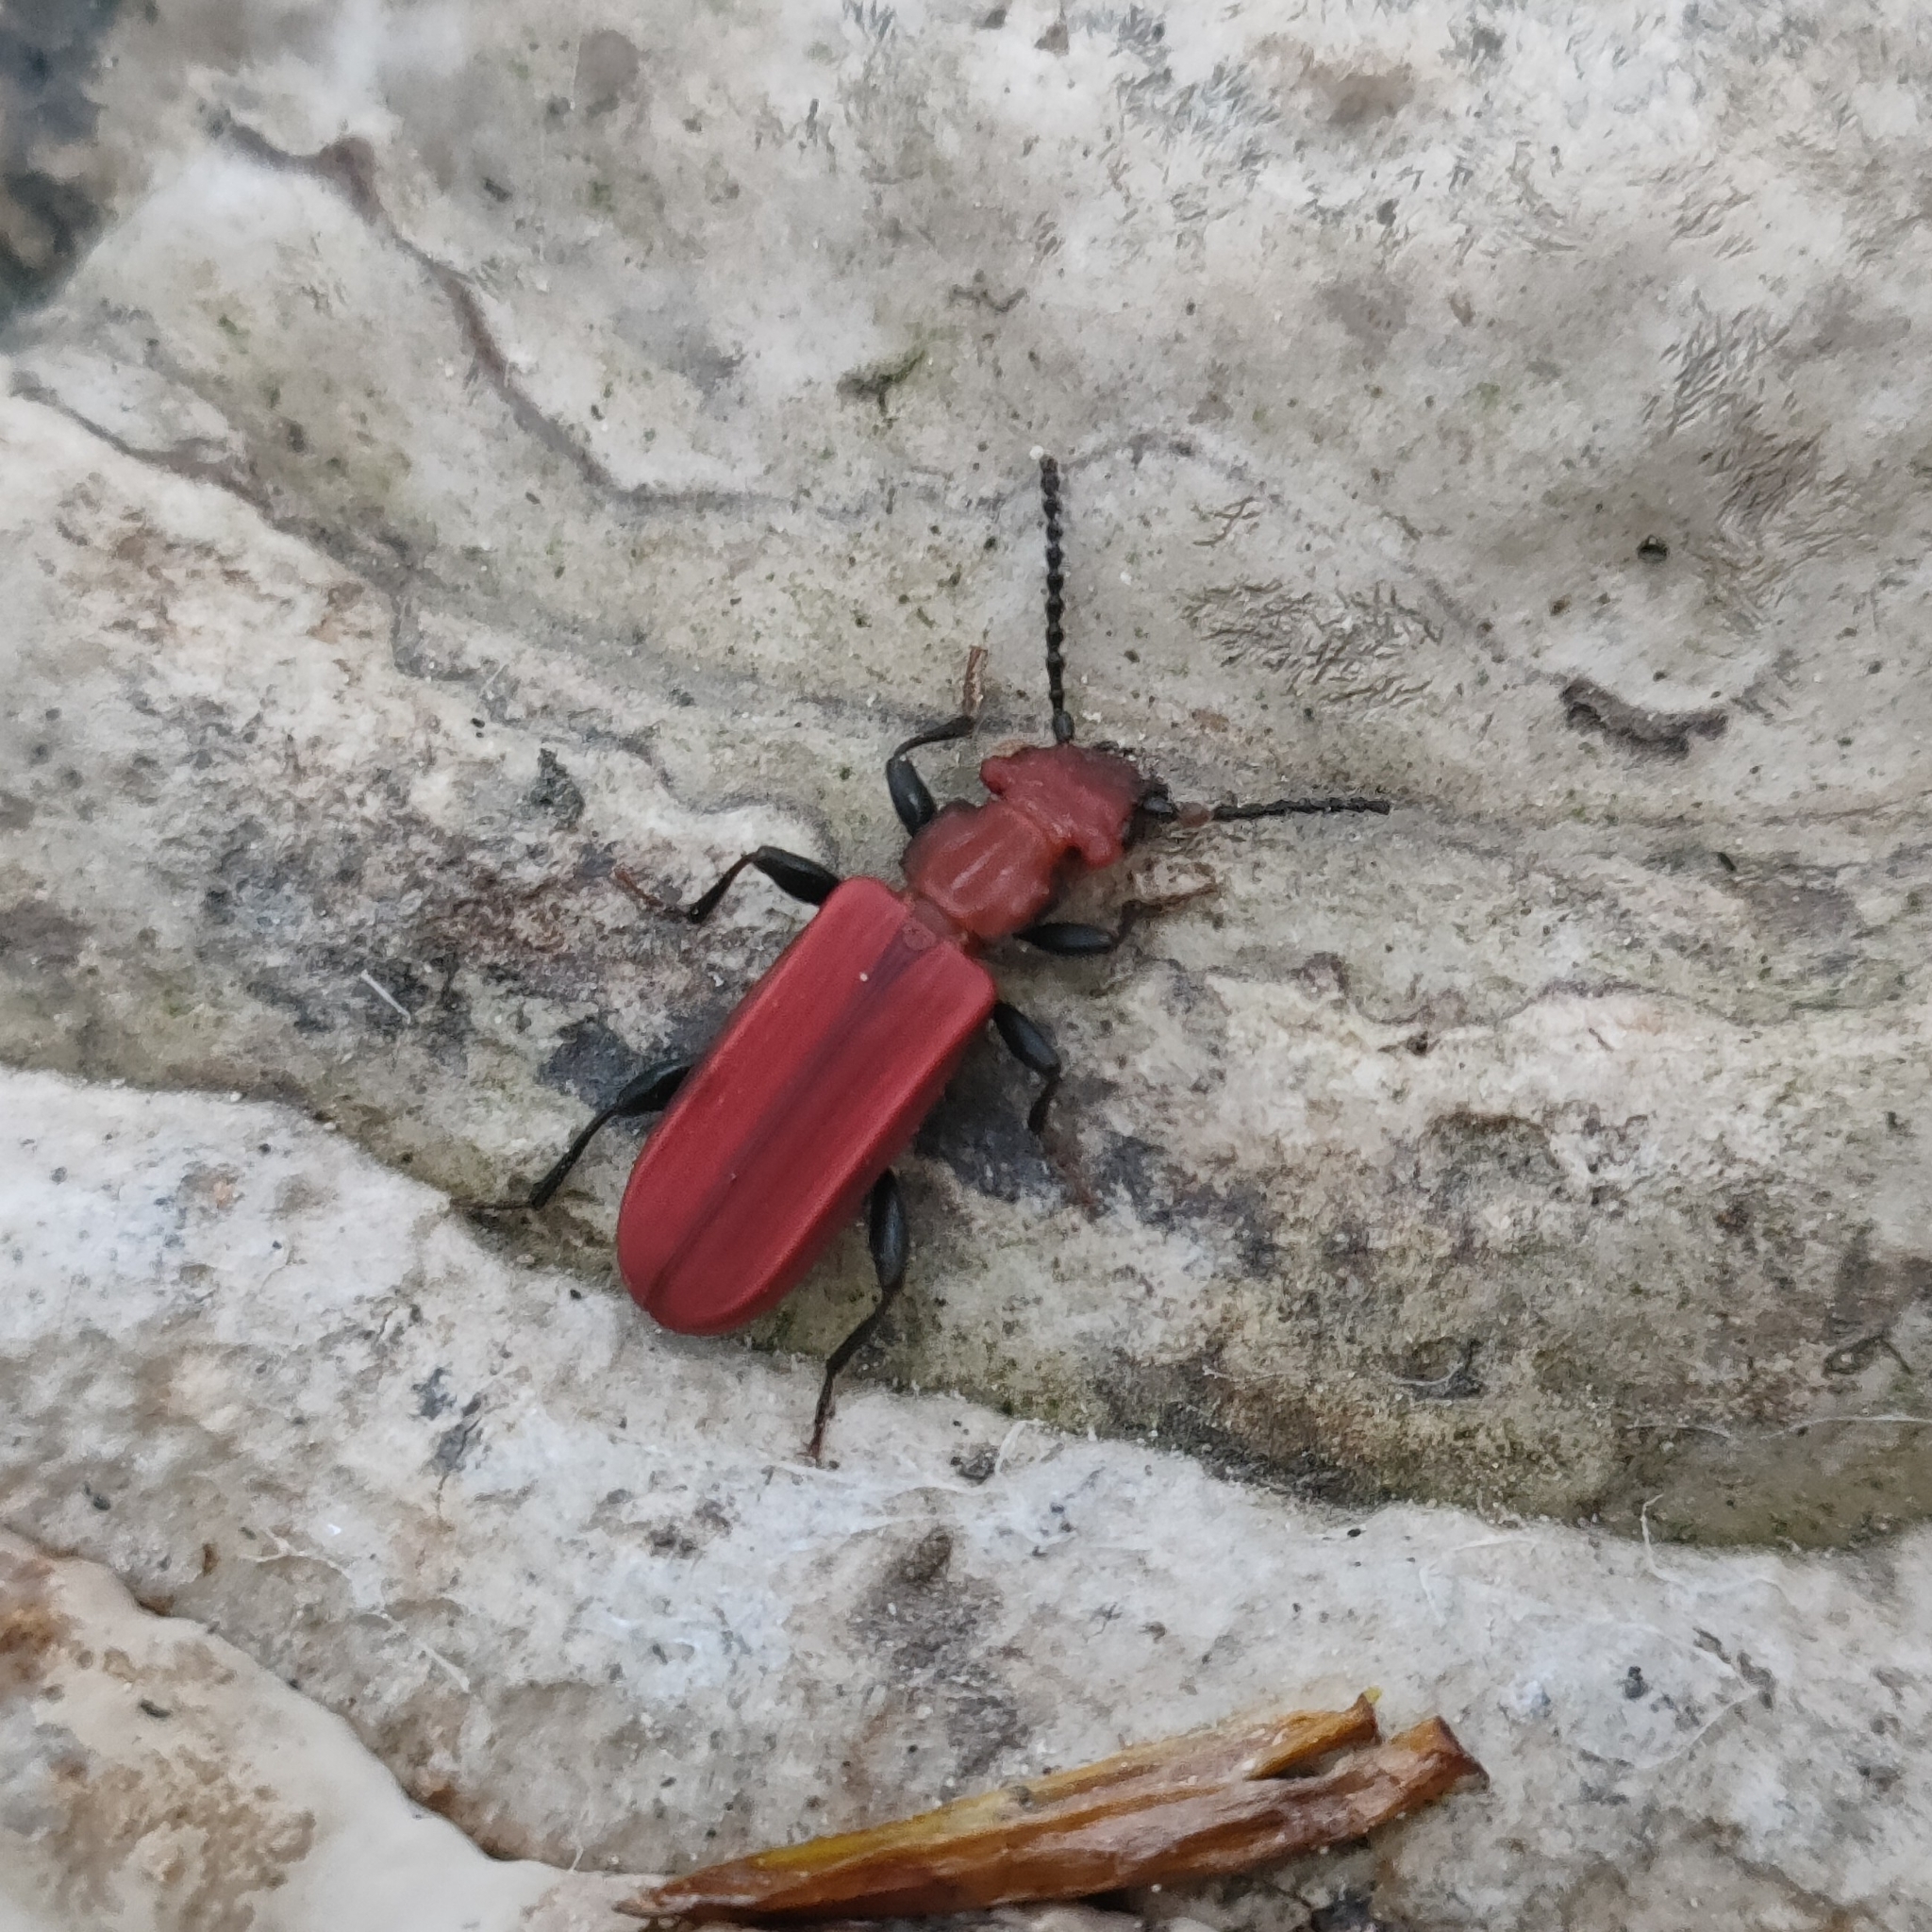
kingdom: Animalia
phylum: Arthropoda
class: Insecta
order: Coleoptera
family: Cucujidae
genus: Cucujus
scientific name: Cucujus cinnaberinus
